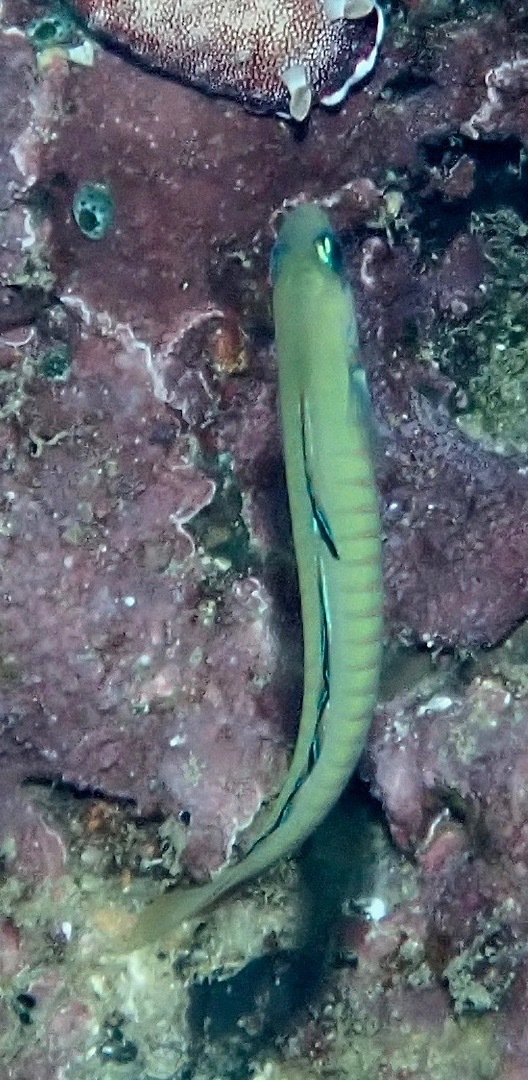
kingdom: Animalia
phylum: Chordata
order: Perciformes
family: Microdesmidae
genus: Ptereleotris
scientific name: Ptereleotris zebra
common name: Chinese zebra goby
